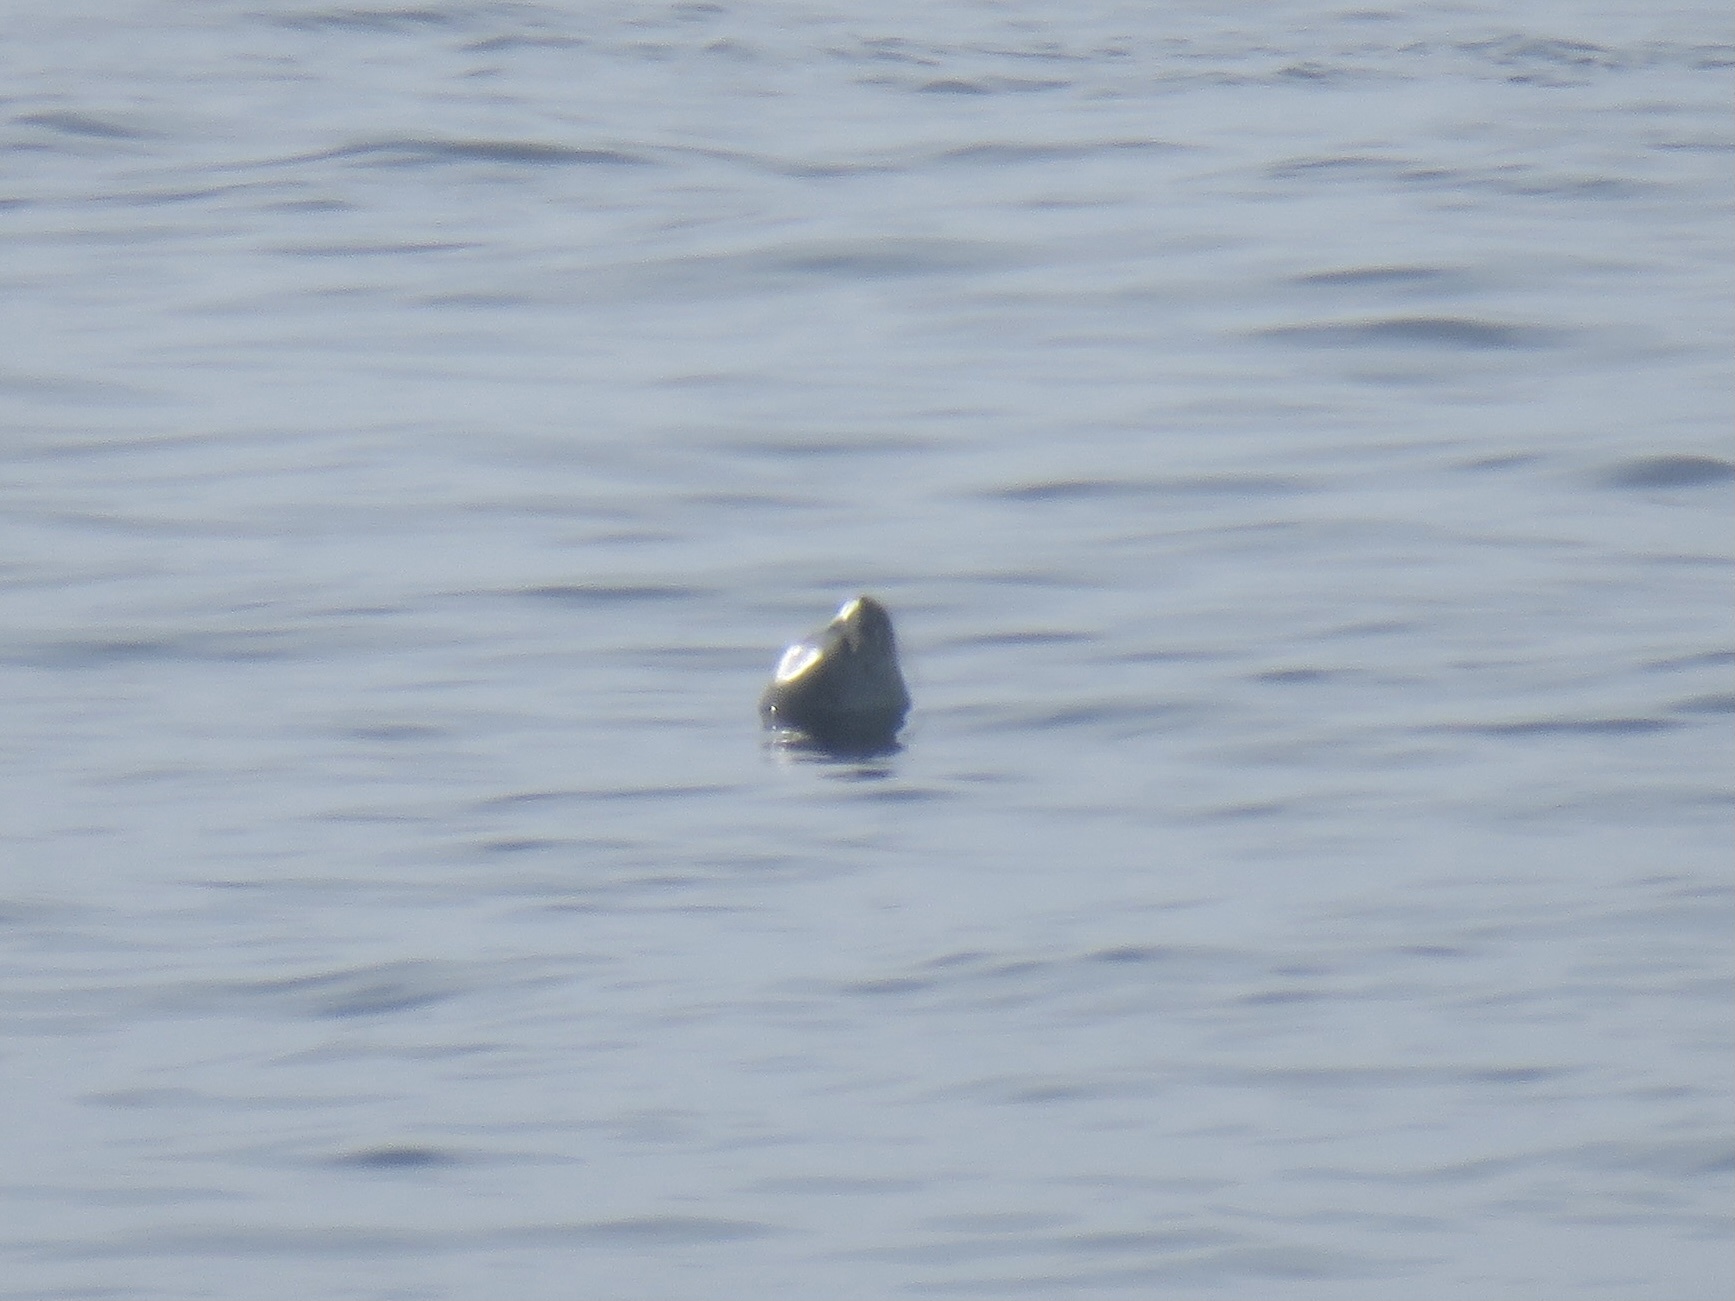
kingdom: Animalia
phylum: Chordata
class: Mammalia
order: Carnivora
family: Phocidae
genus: Phoca
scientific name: Phoca vitulina
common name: Harbor seal
